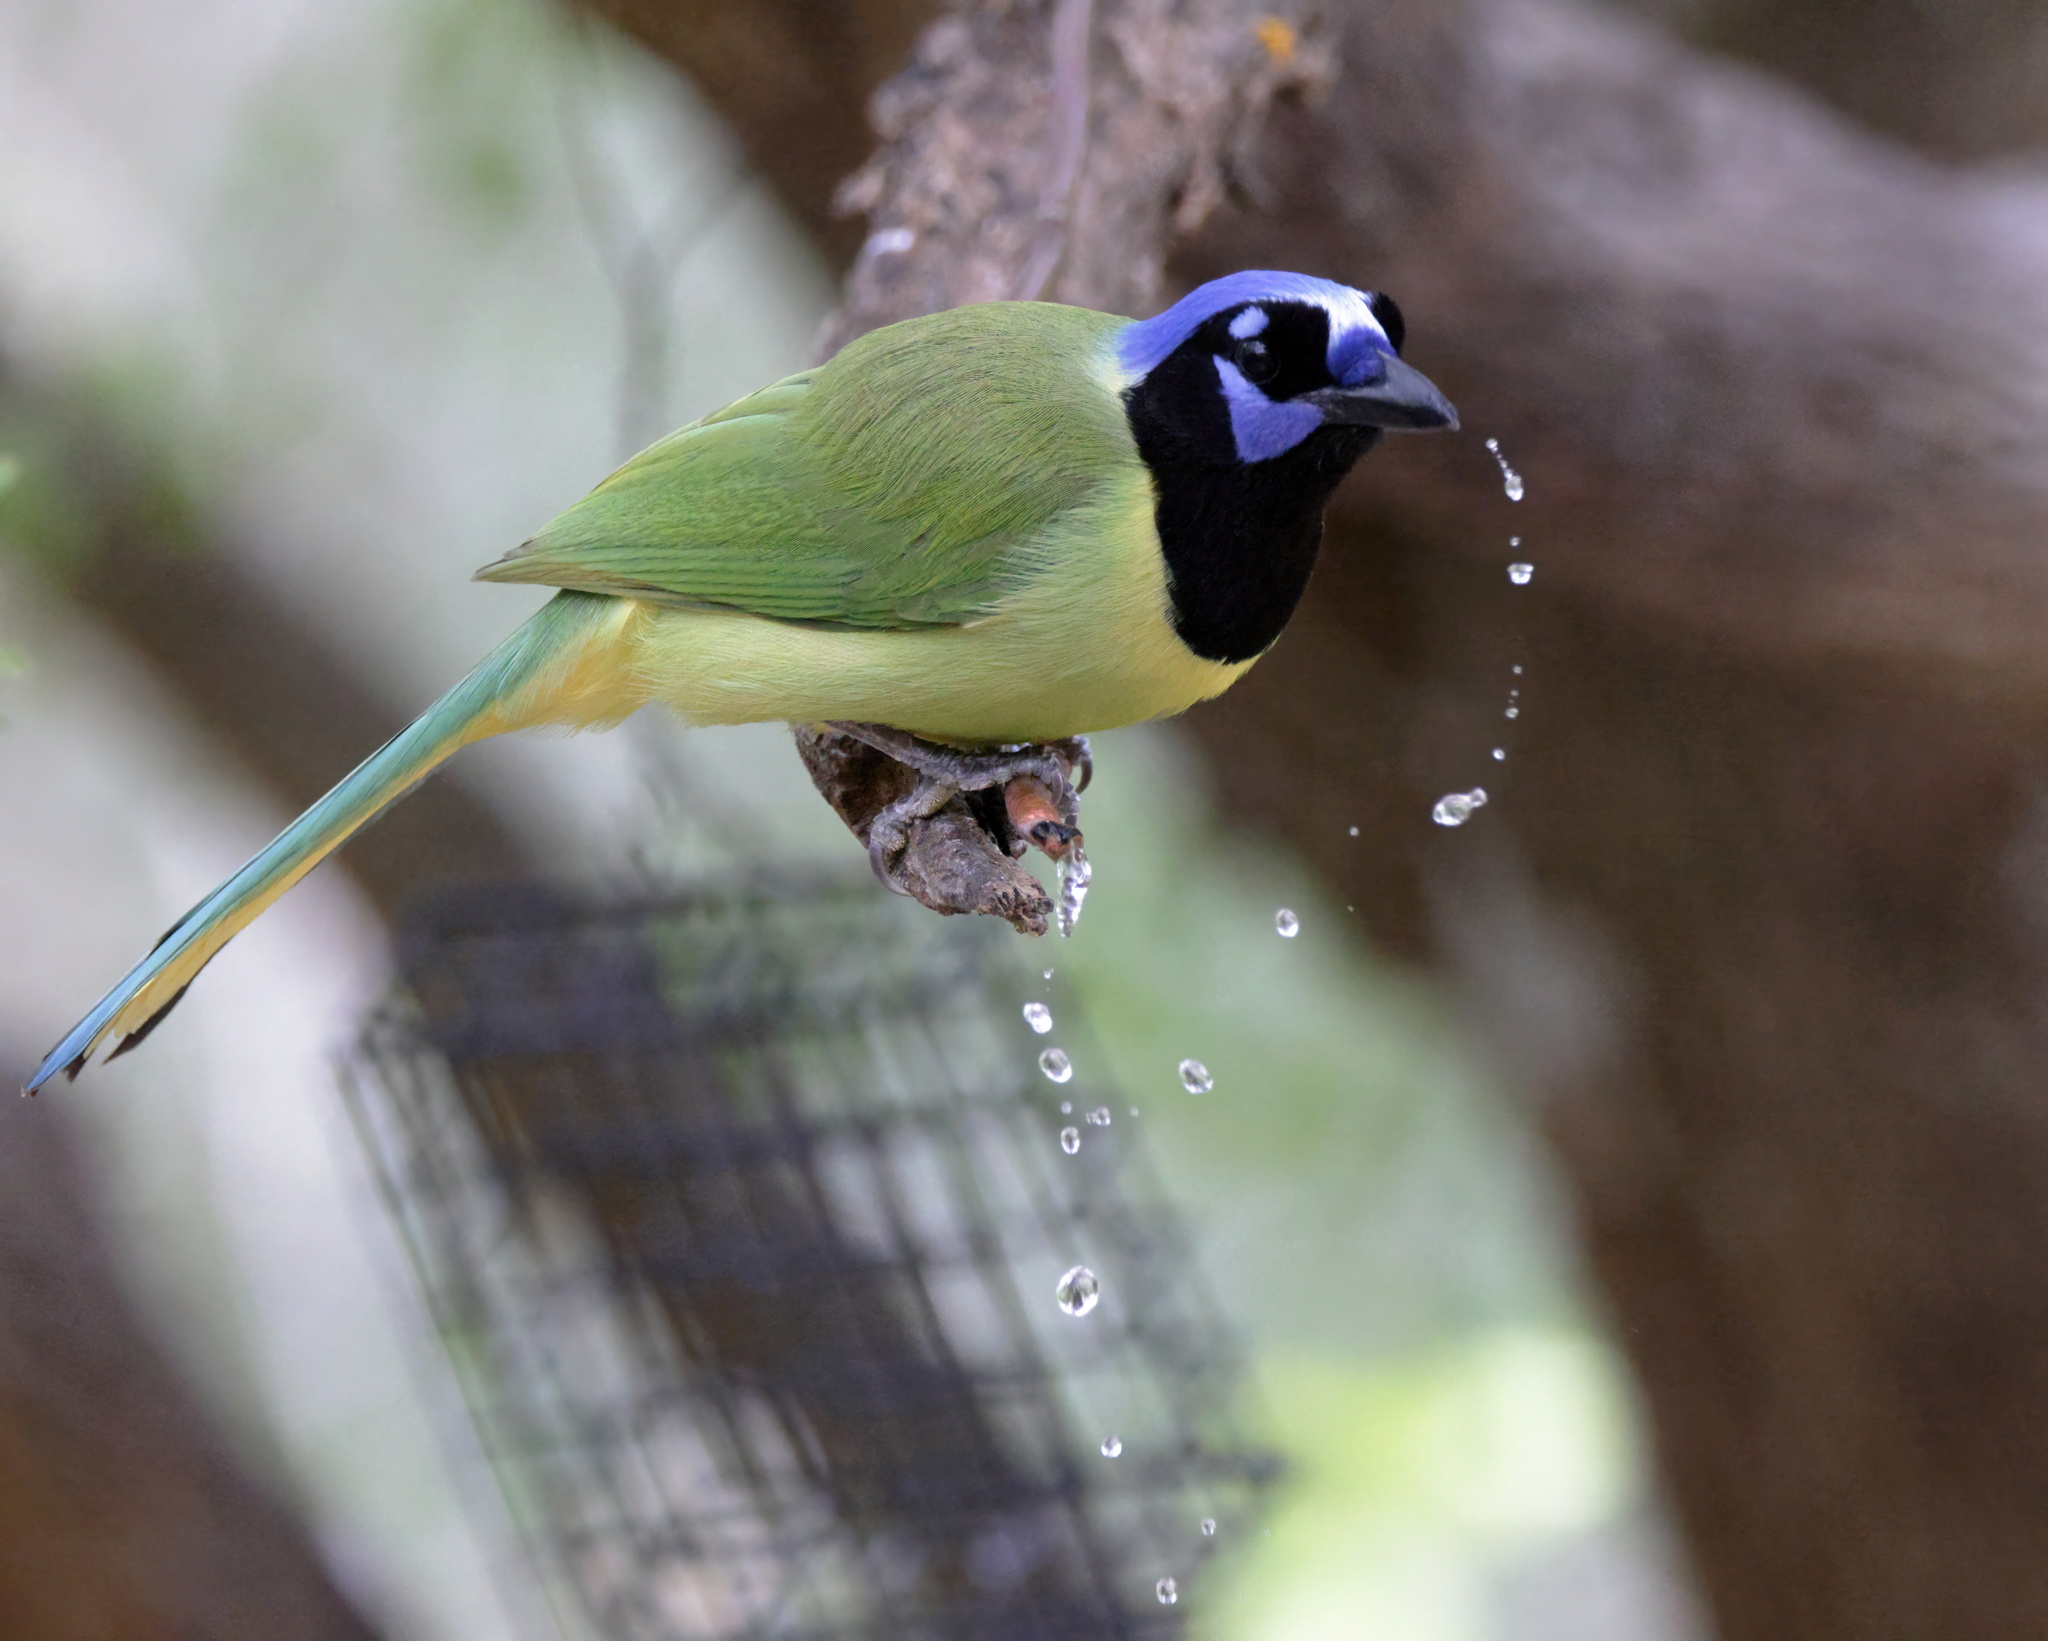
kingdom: Animalia
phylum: Chordata
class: Aves
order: Passeriformes
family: Corvidae
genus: Cyanocorax
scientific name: Cyanocorax yncas
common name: Green jay
